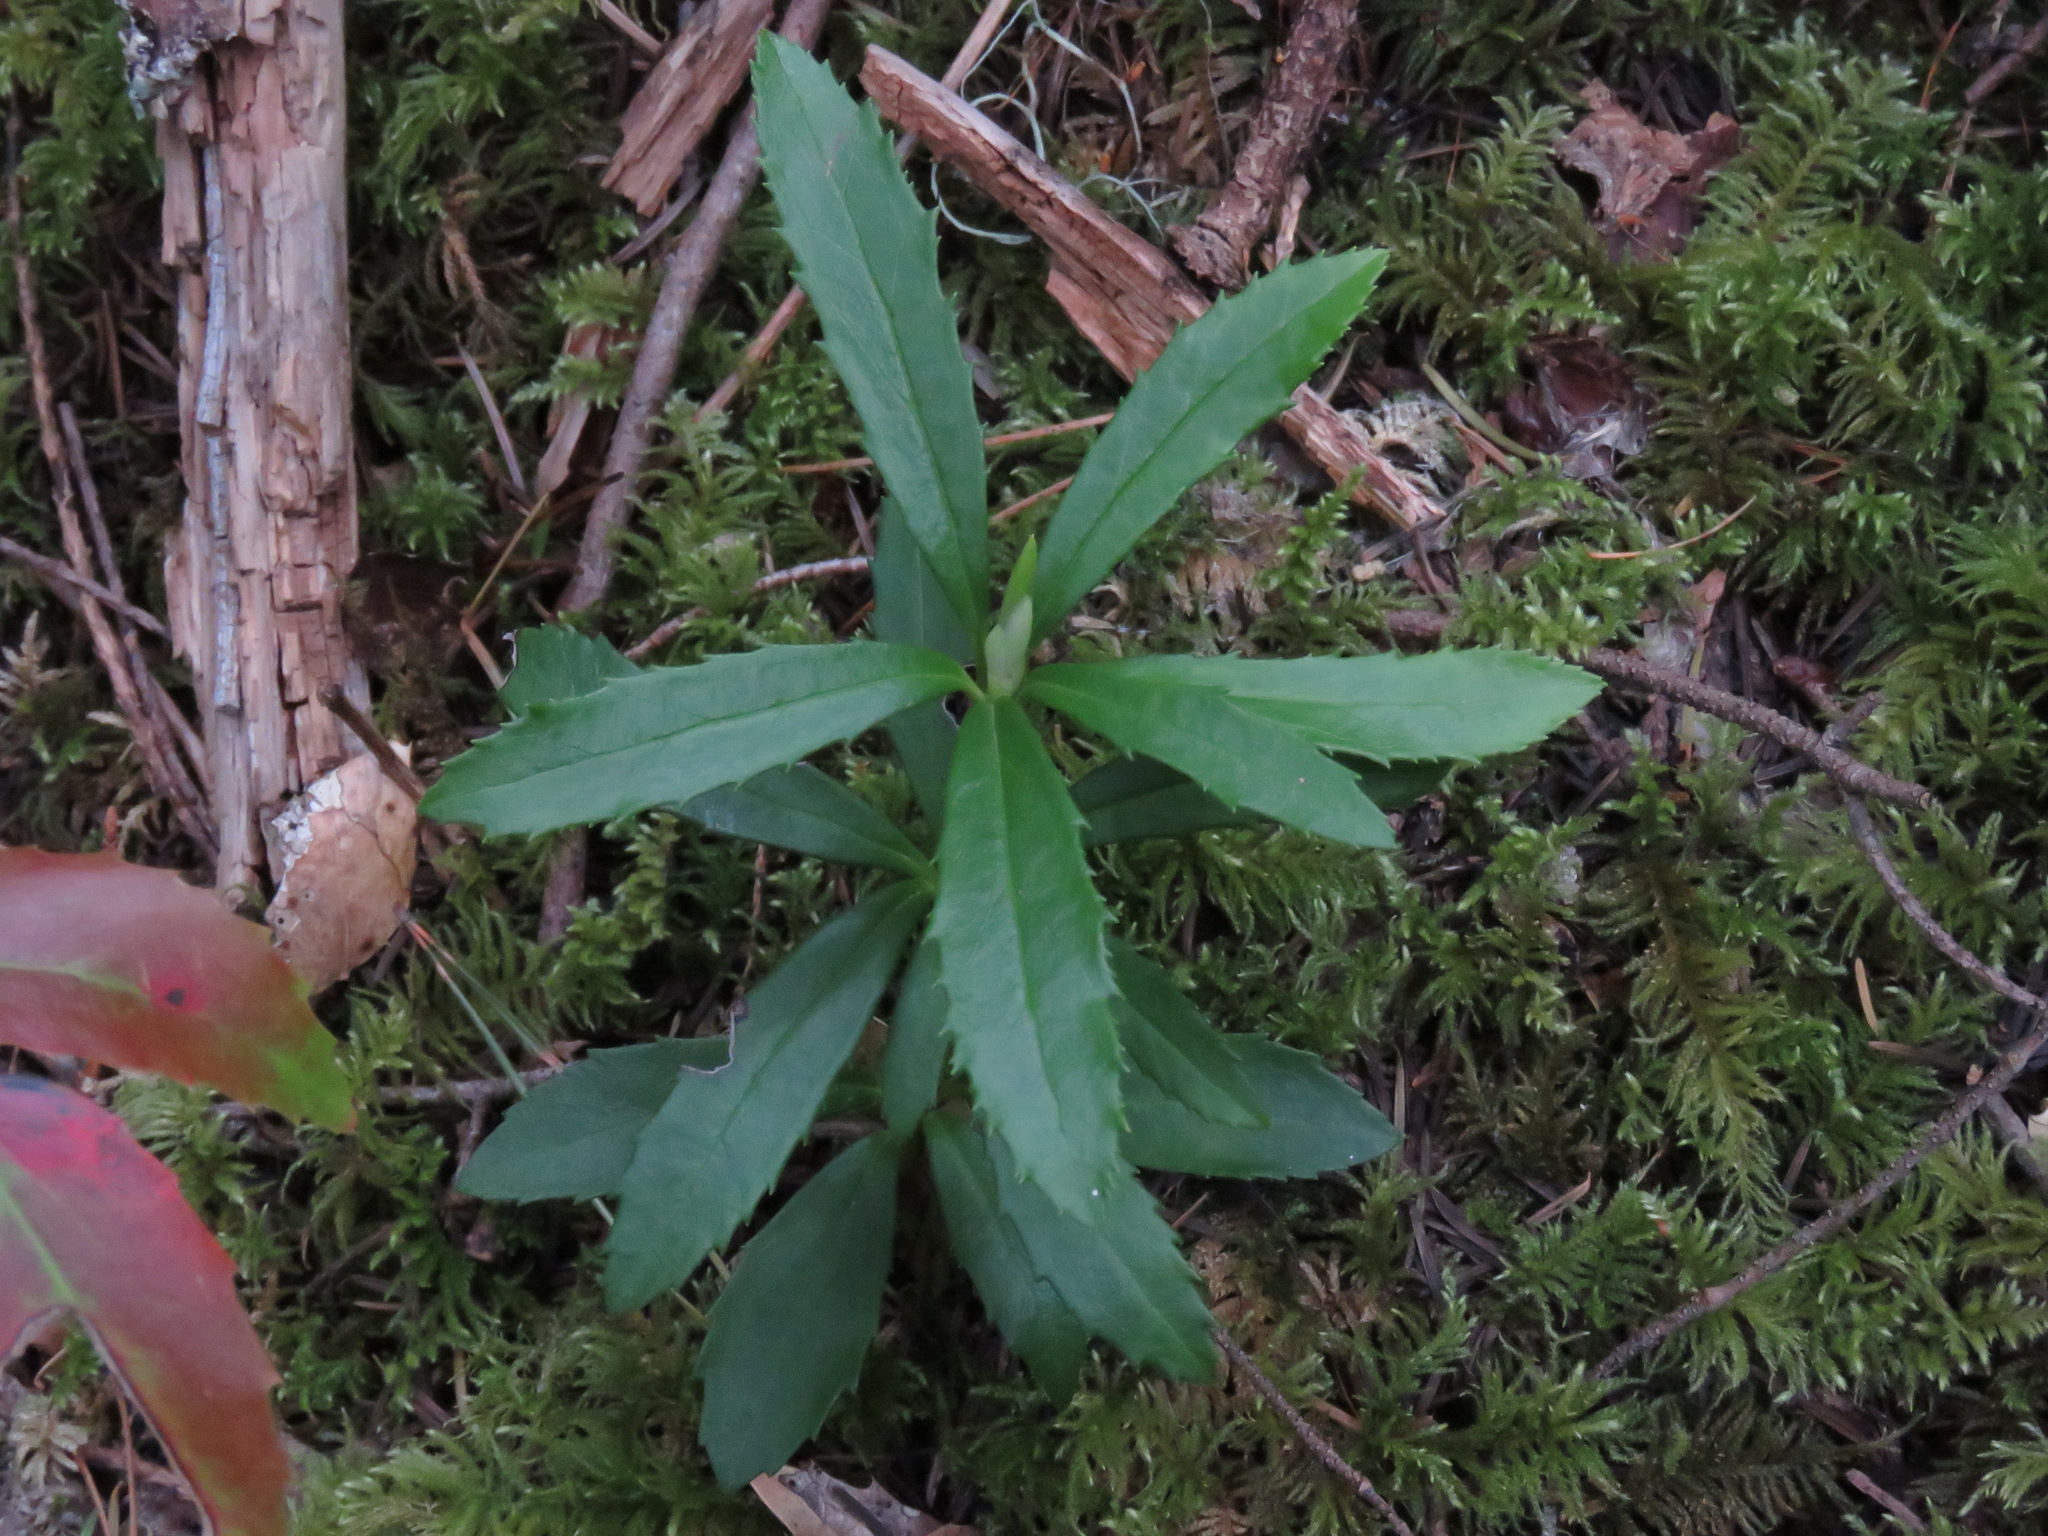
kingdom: Plantae
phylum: Tracheophyta
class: Magnoliopsida
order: Ericales
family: Ericaceae
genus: Chimaphila
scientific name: Chimaphila umbellata
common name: Pipsissewa
